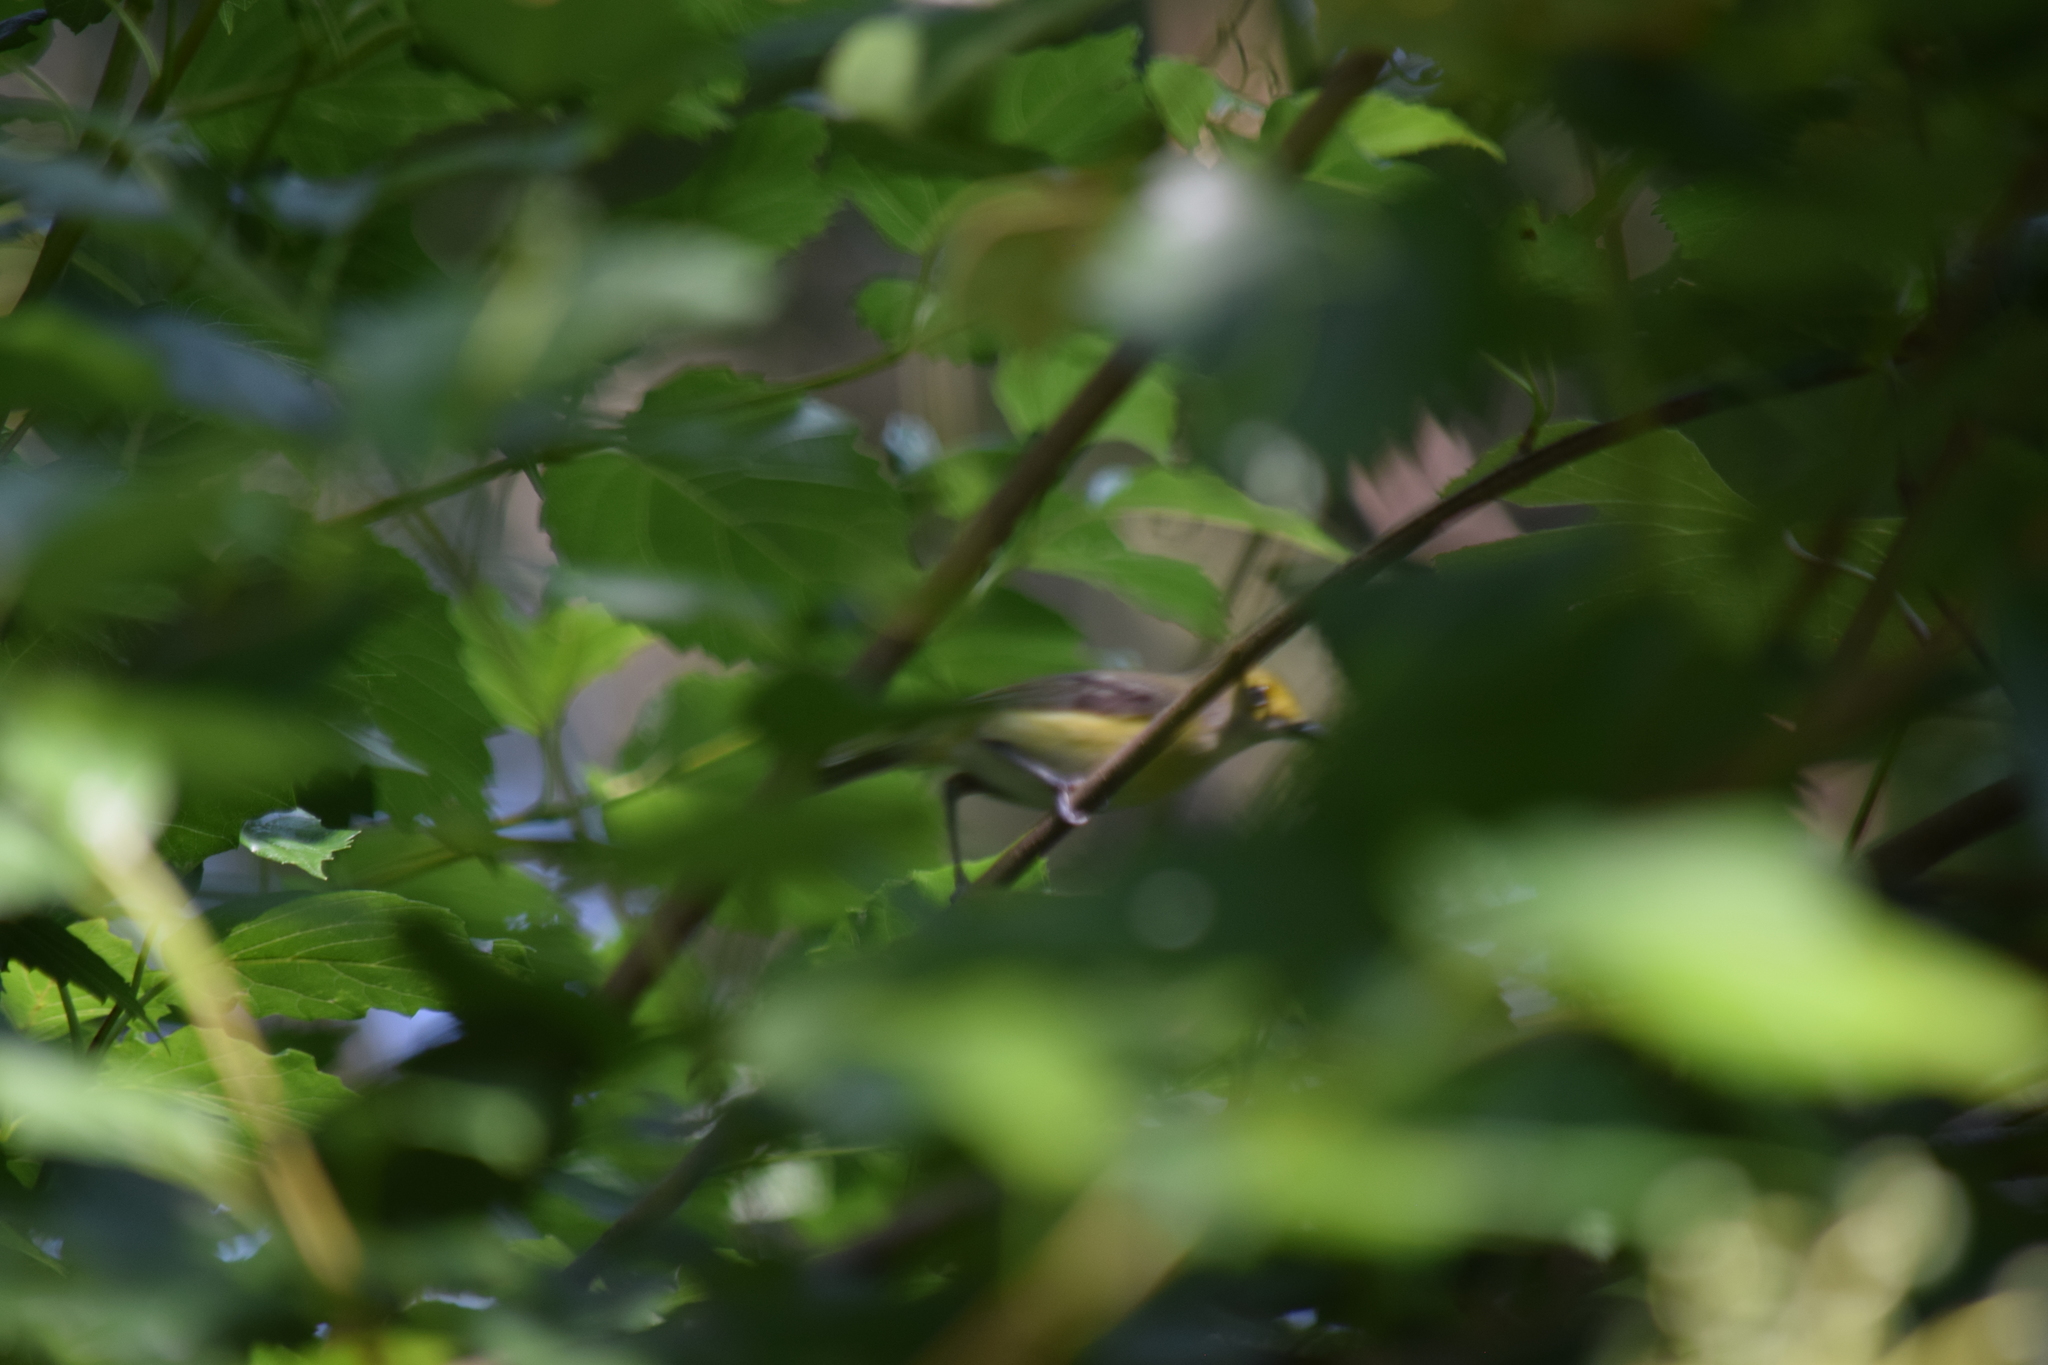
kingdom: Animalia
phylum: Chordata
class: Aves
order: Passeriformes
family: Vireonidae
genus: Vireo
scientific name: Vireo griseus
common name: White-eyed vireo
